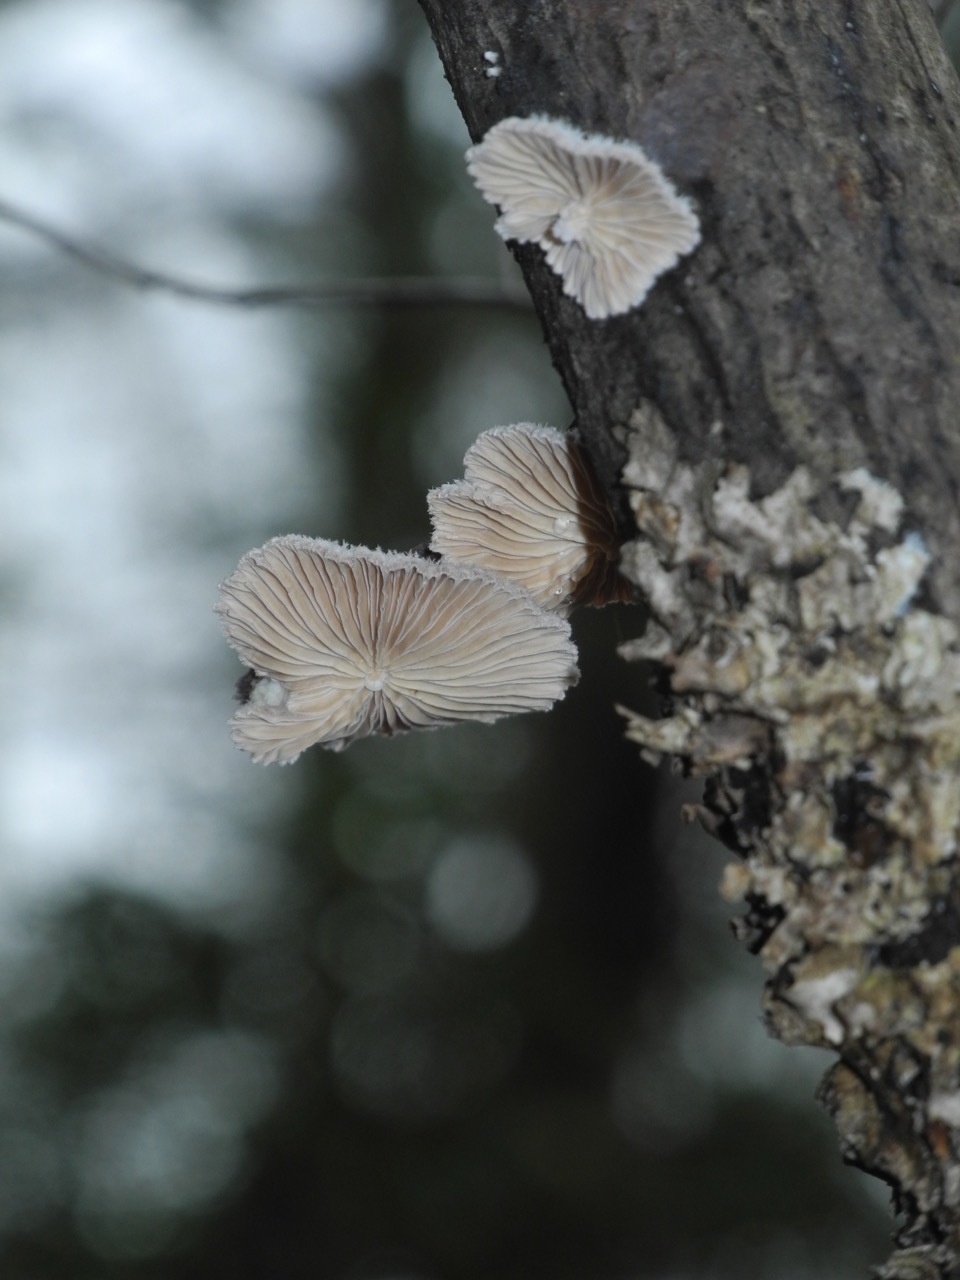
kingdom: Fungi
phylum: Basidiomycota
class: Agaricomycetes
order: Agaricales
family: Schizophyllaceae
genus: Schizophyllum
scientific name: Schizophyllum commune
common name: Common porecrust
